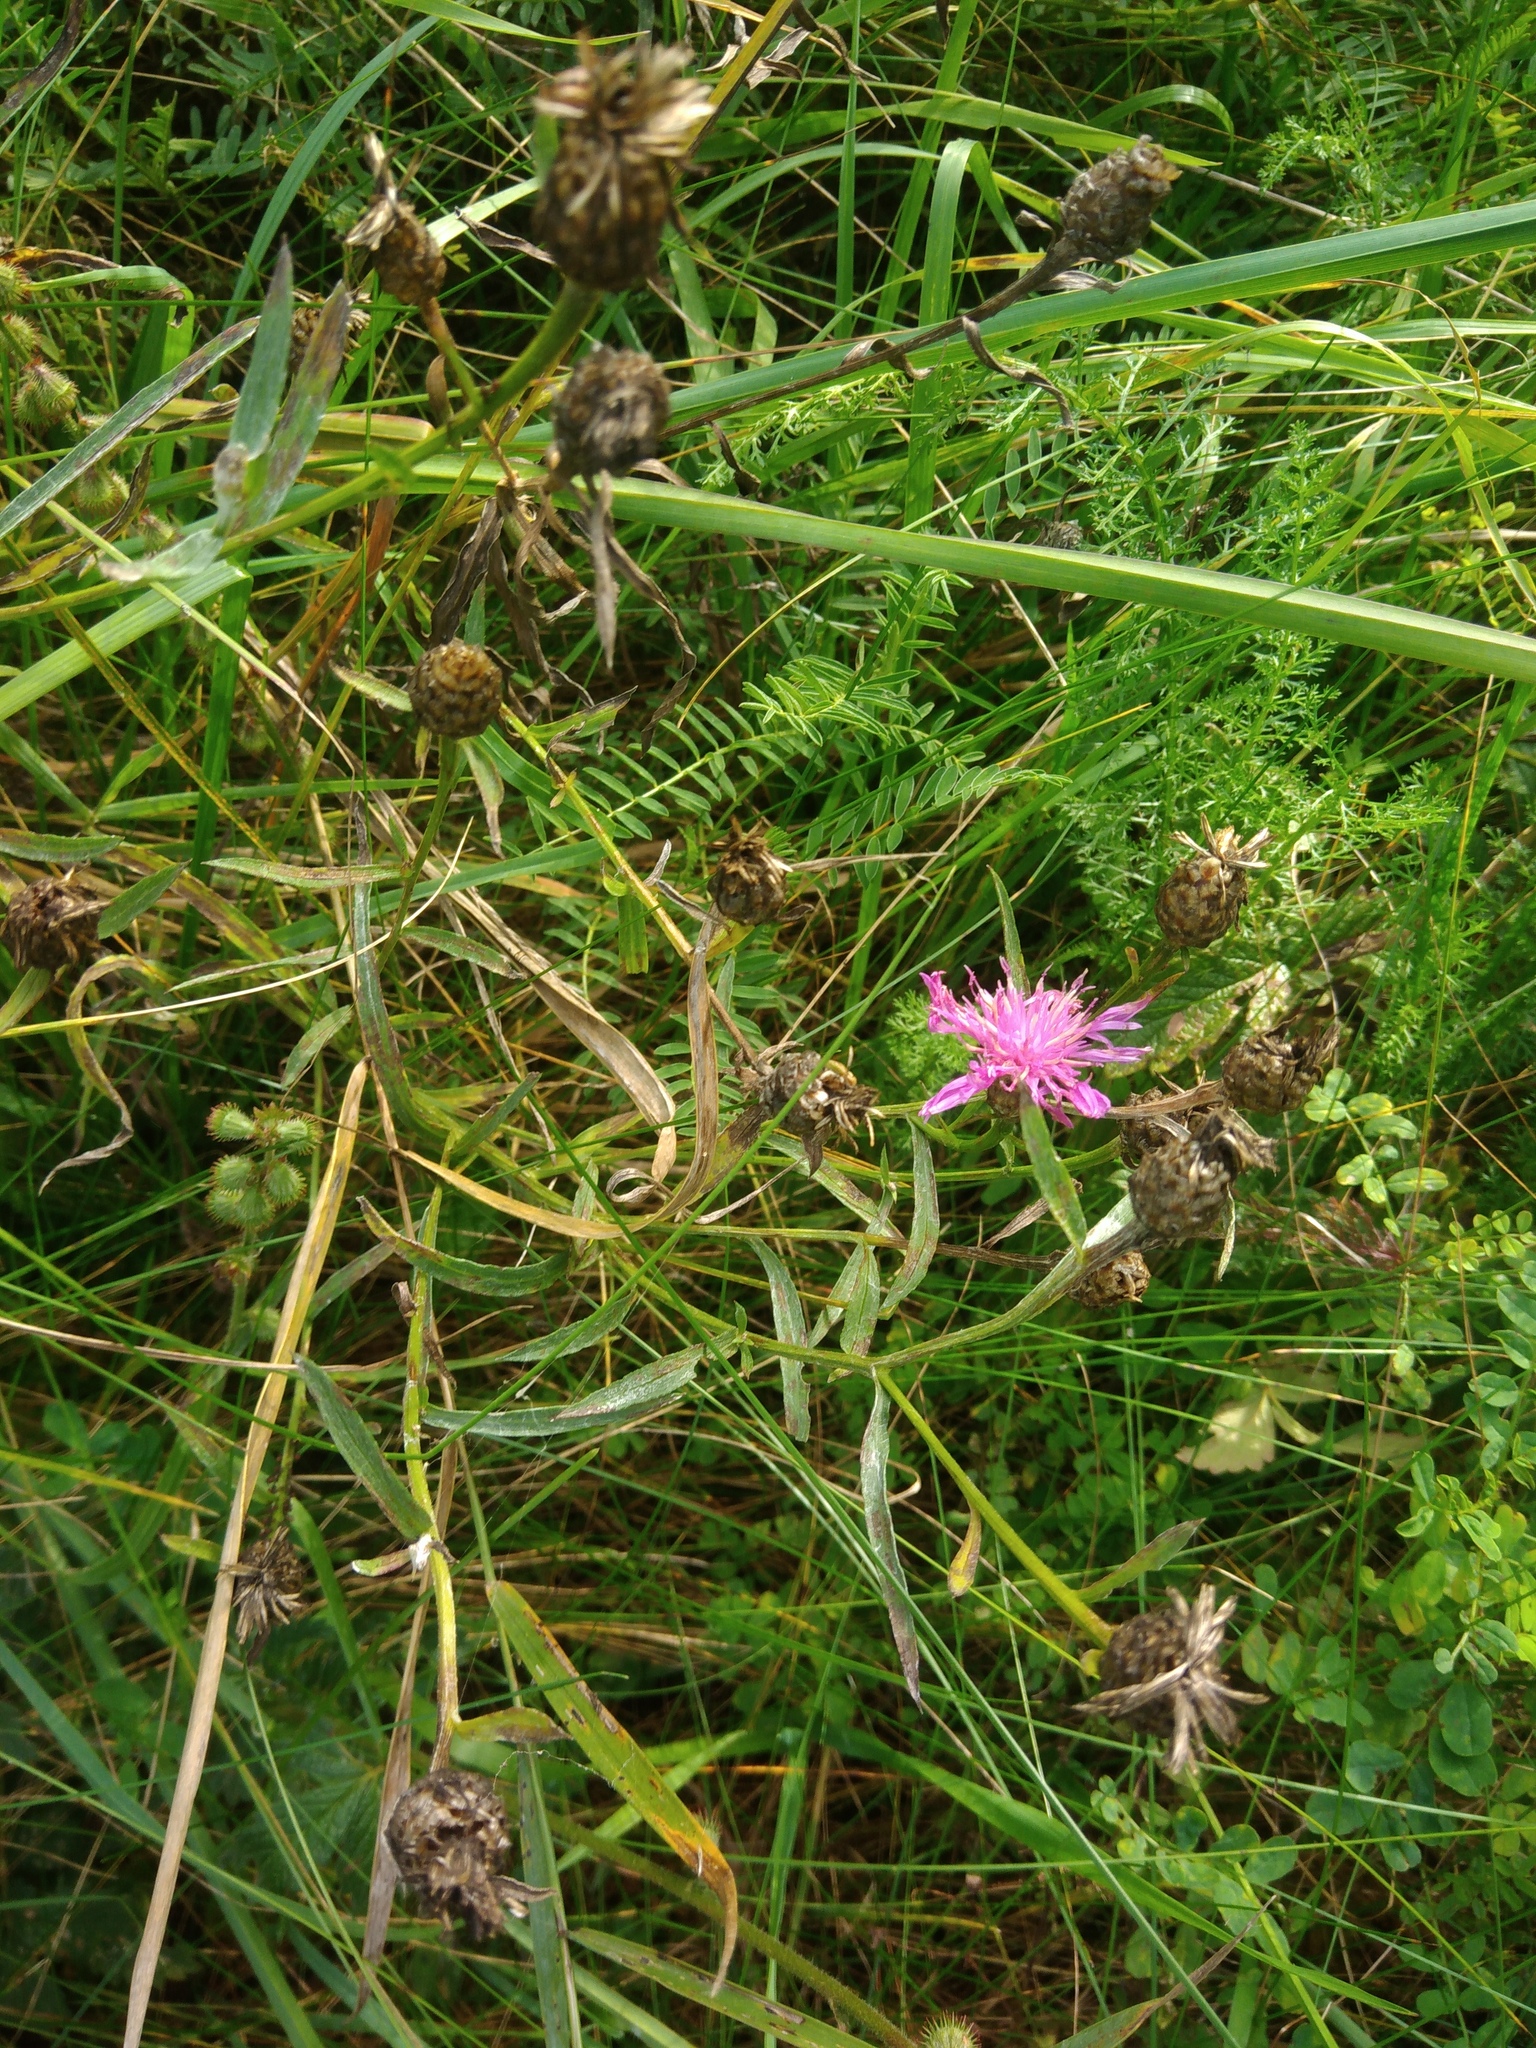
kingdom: Plantae
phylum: Tracheophyta
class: Magnoliopsida
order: Asterales
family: Asteraceae
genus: Centaurea
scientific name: Centaurea jacea
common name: Brown knapweed
